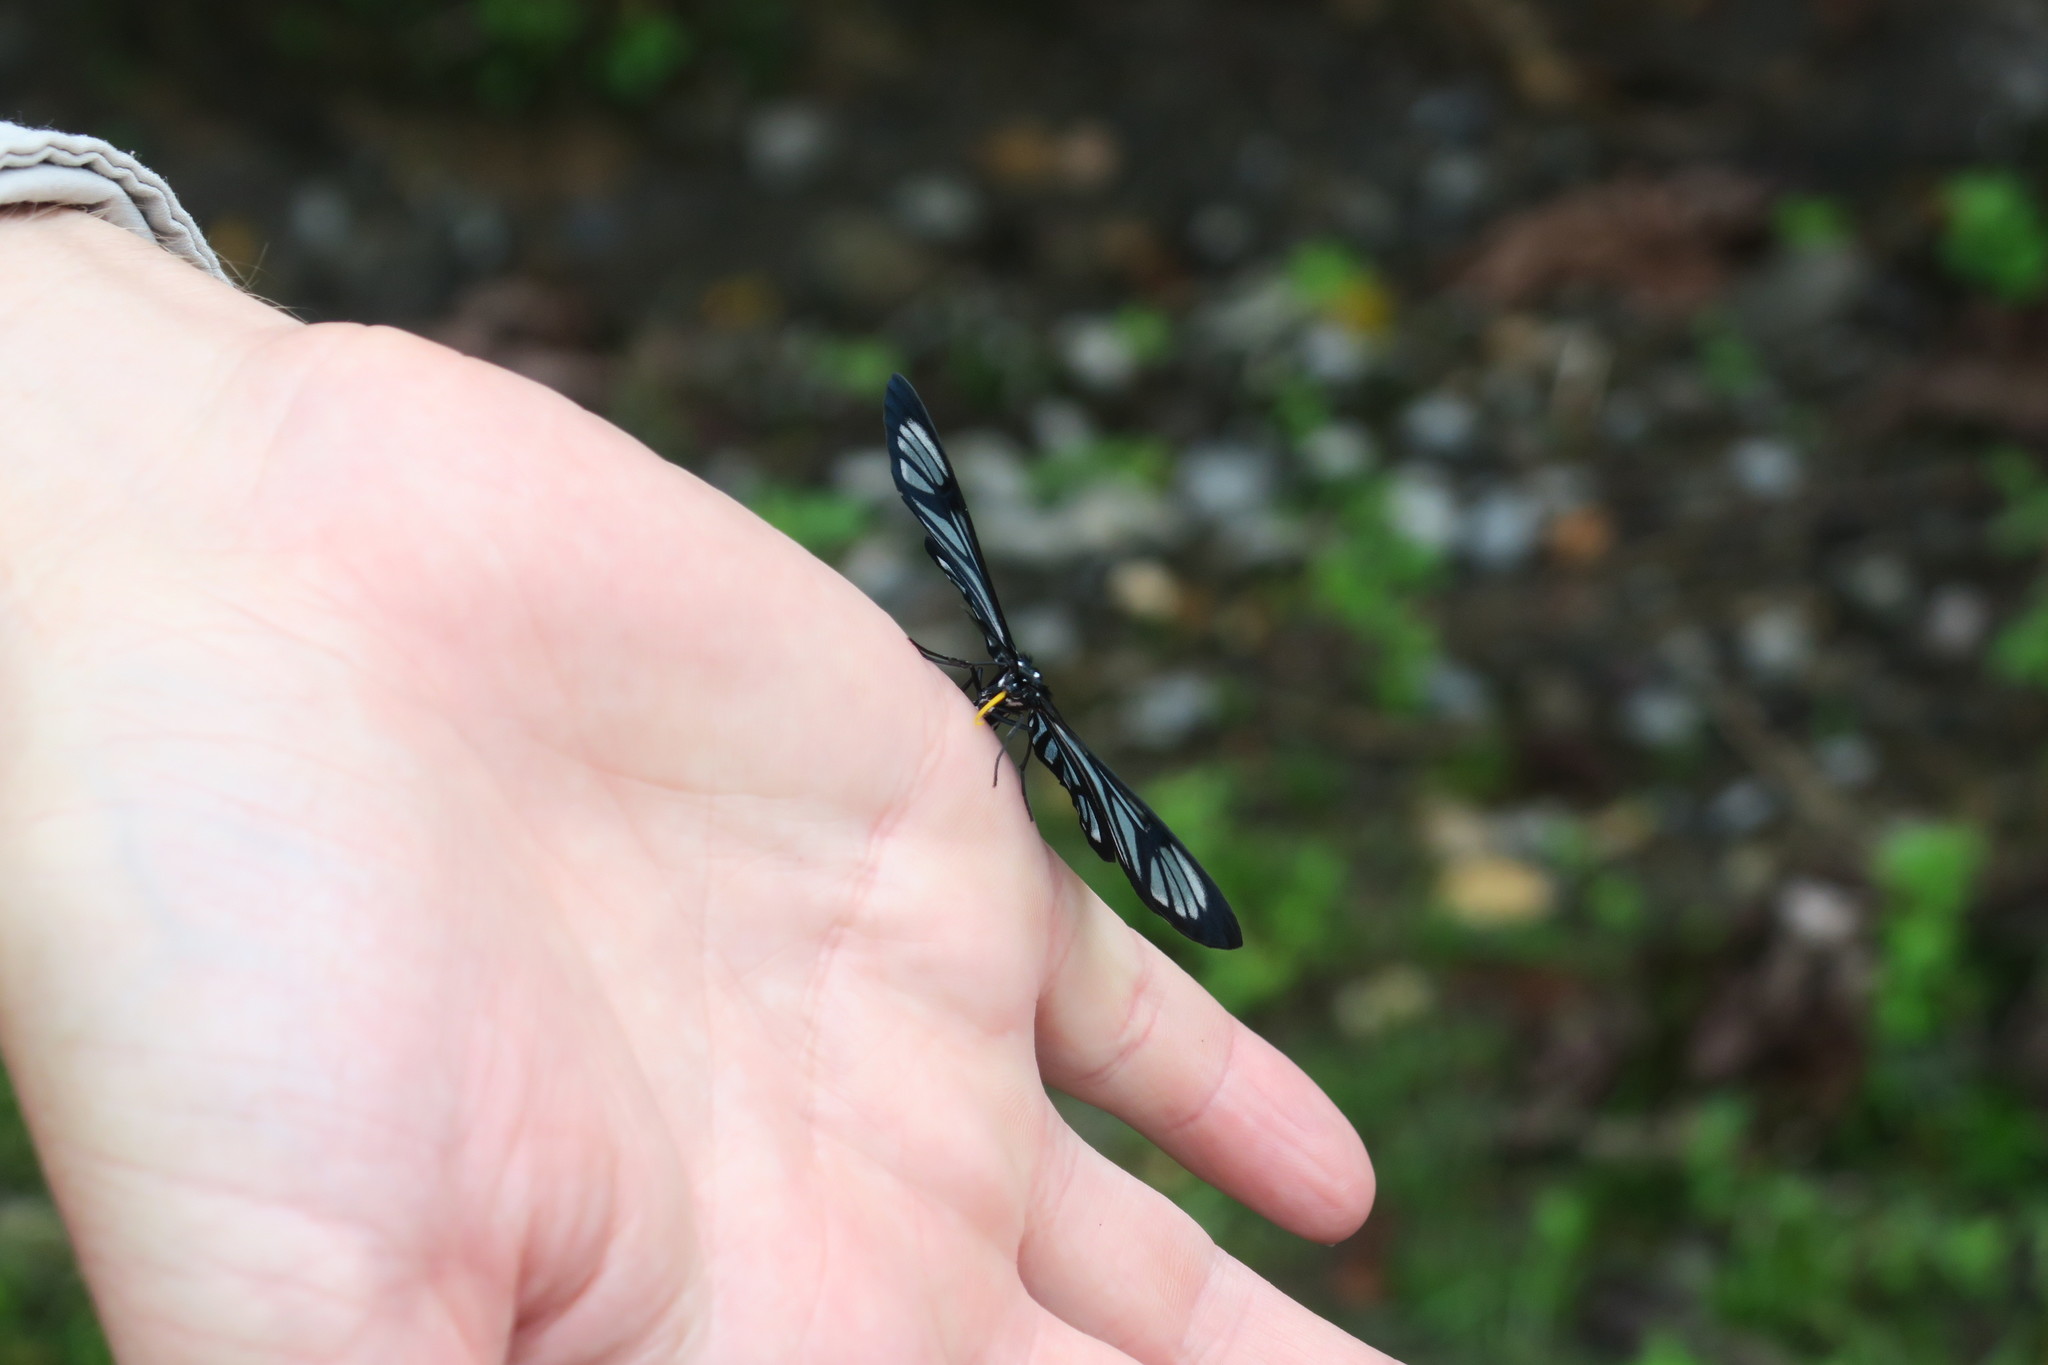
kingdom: Animalia
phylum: Arthropoda
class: Insecta
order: Lepidoptera
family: Geometridae
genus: Gonora
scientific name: Gonora hyelosioides
